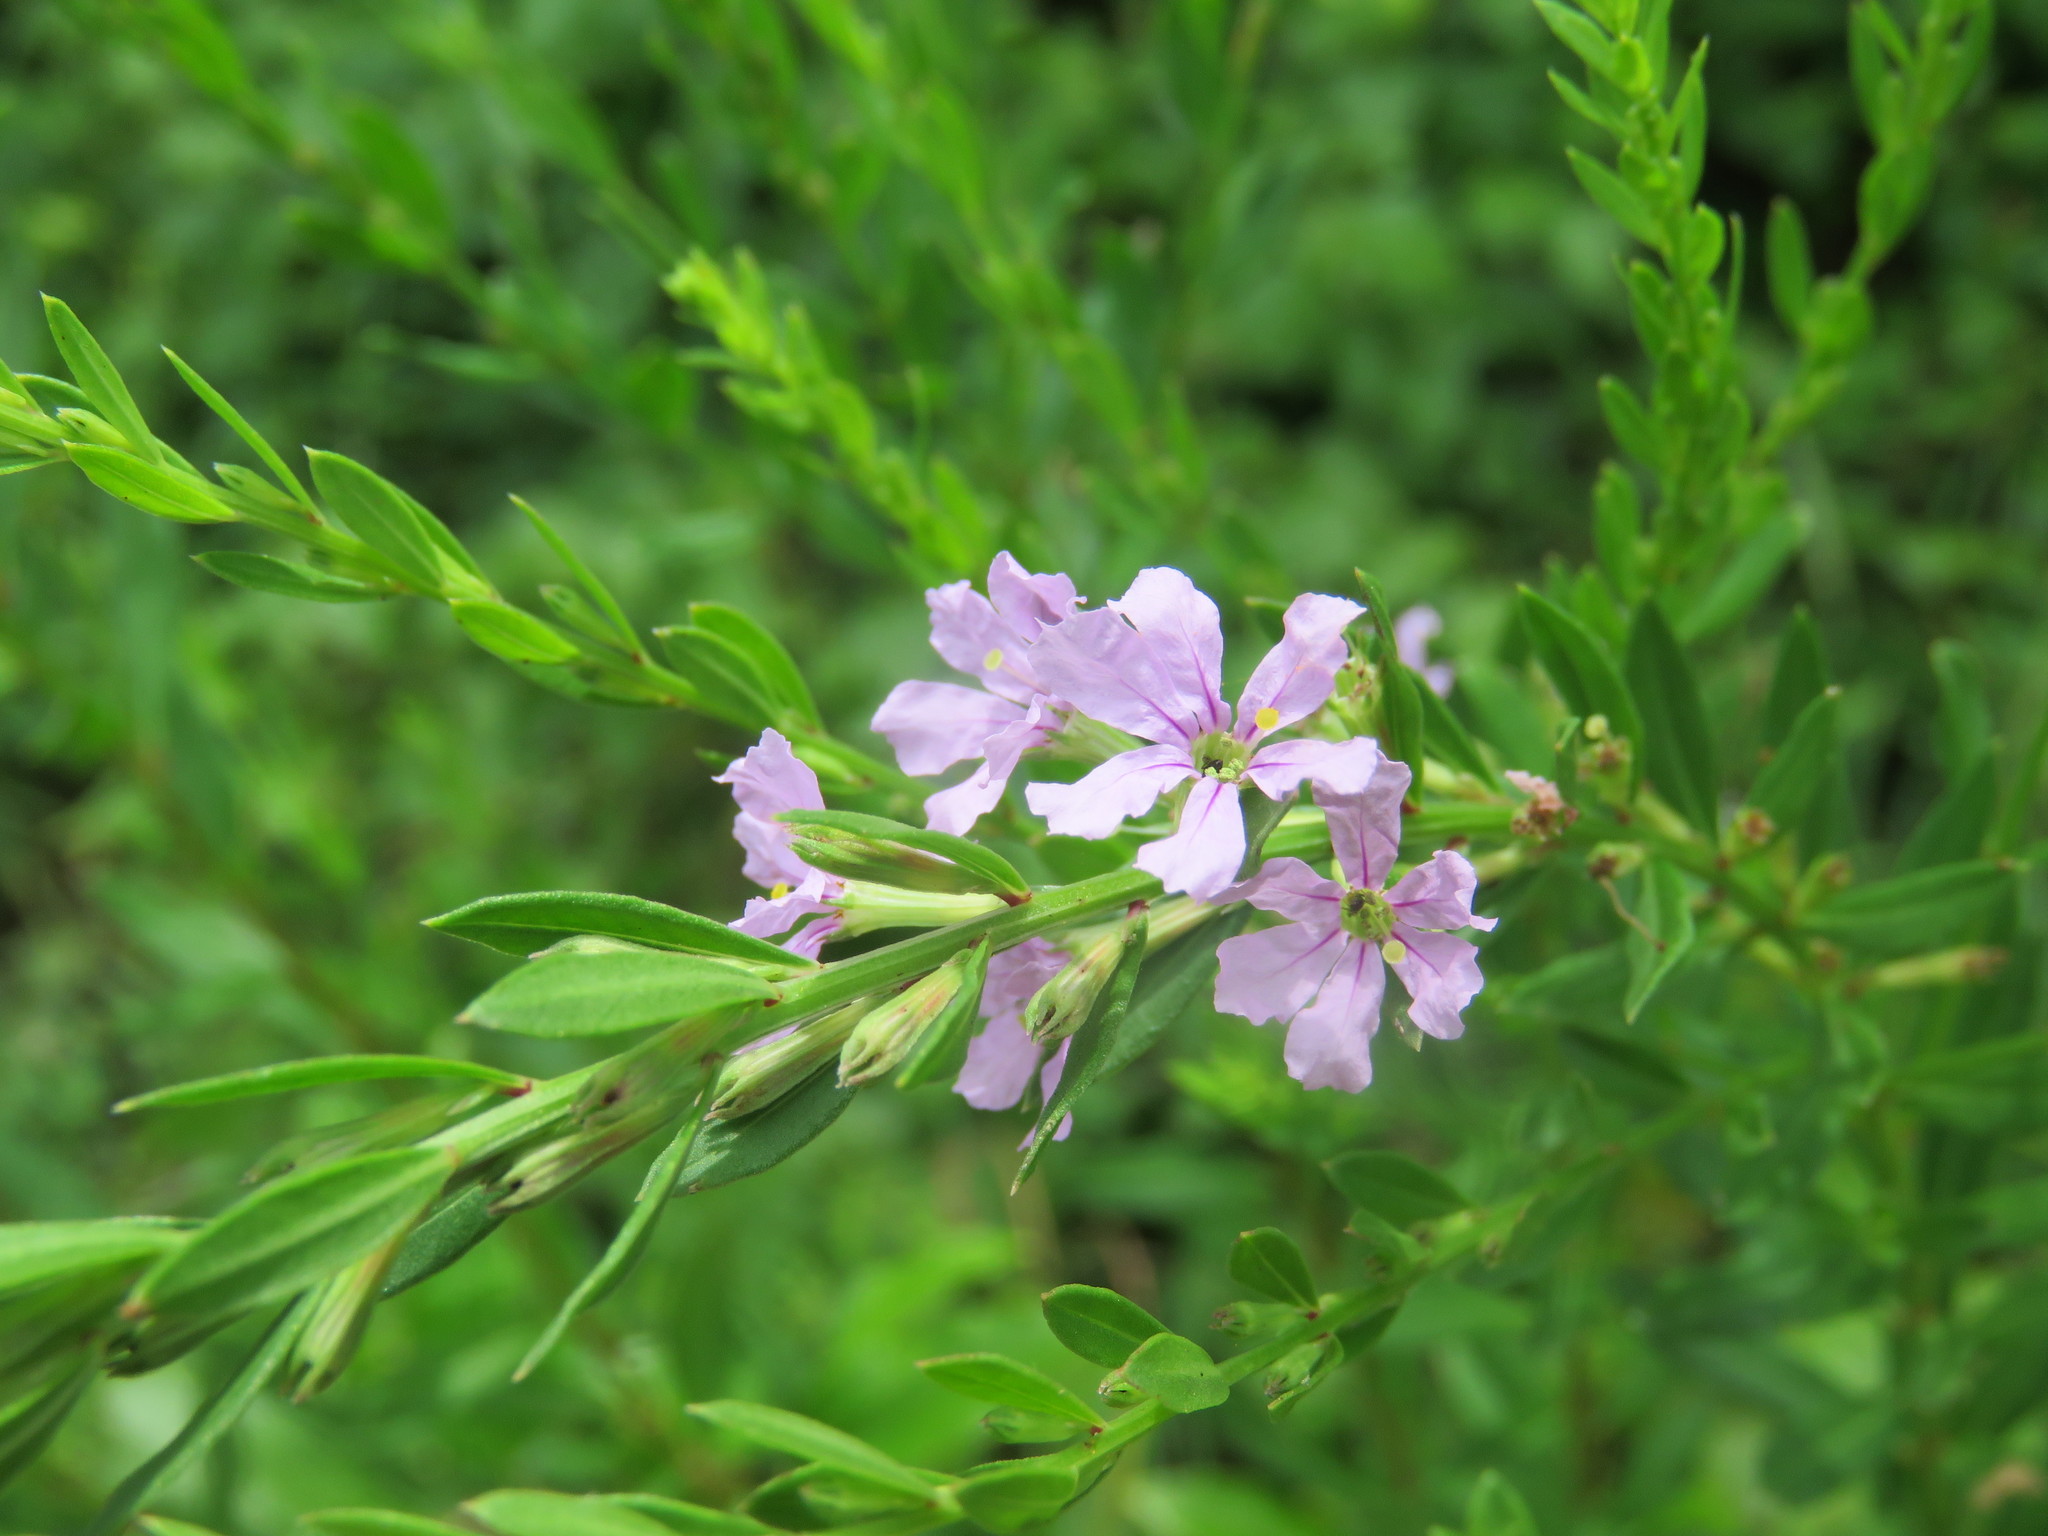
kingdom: Plantae
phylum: Tracheophyta
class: Magnoliopsida
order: Myrtales
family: Lythraceae
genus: Lythrum
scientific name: Lythrum alatum
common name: Winged loosestrife
